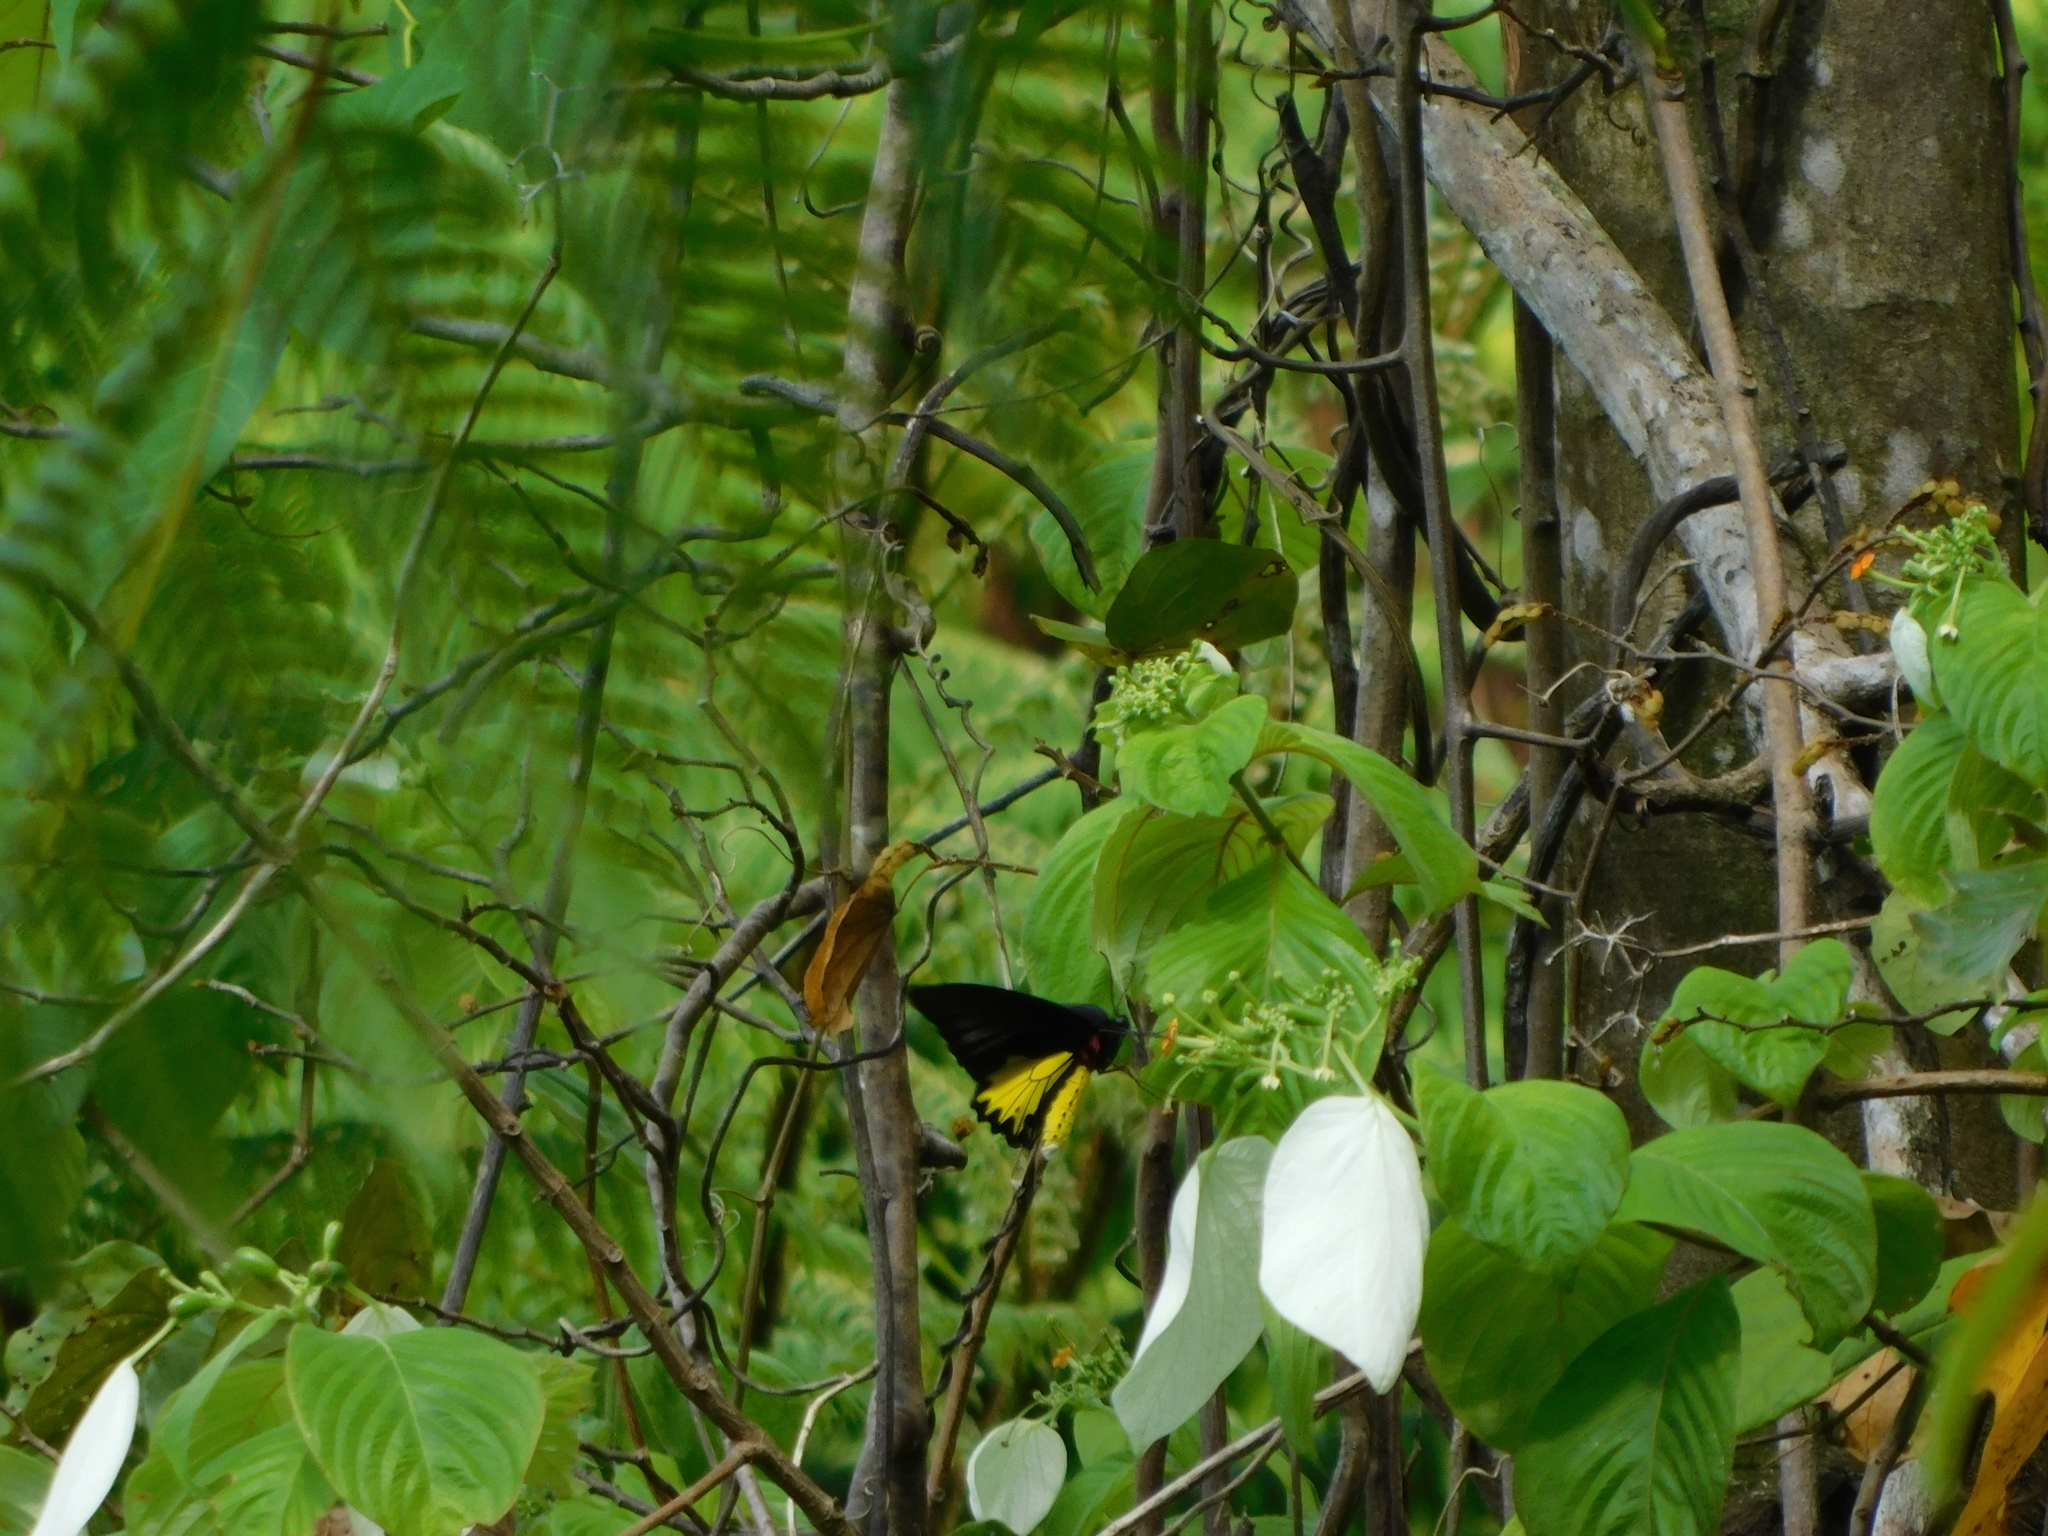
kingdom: Animalia
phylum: Arthropoda
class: Insecta
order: Lepidoptera
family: Papilionidae
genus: Troides
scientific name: Troides helena
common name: Common birdwing
